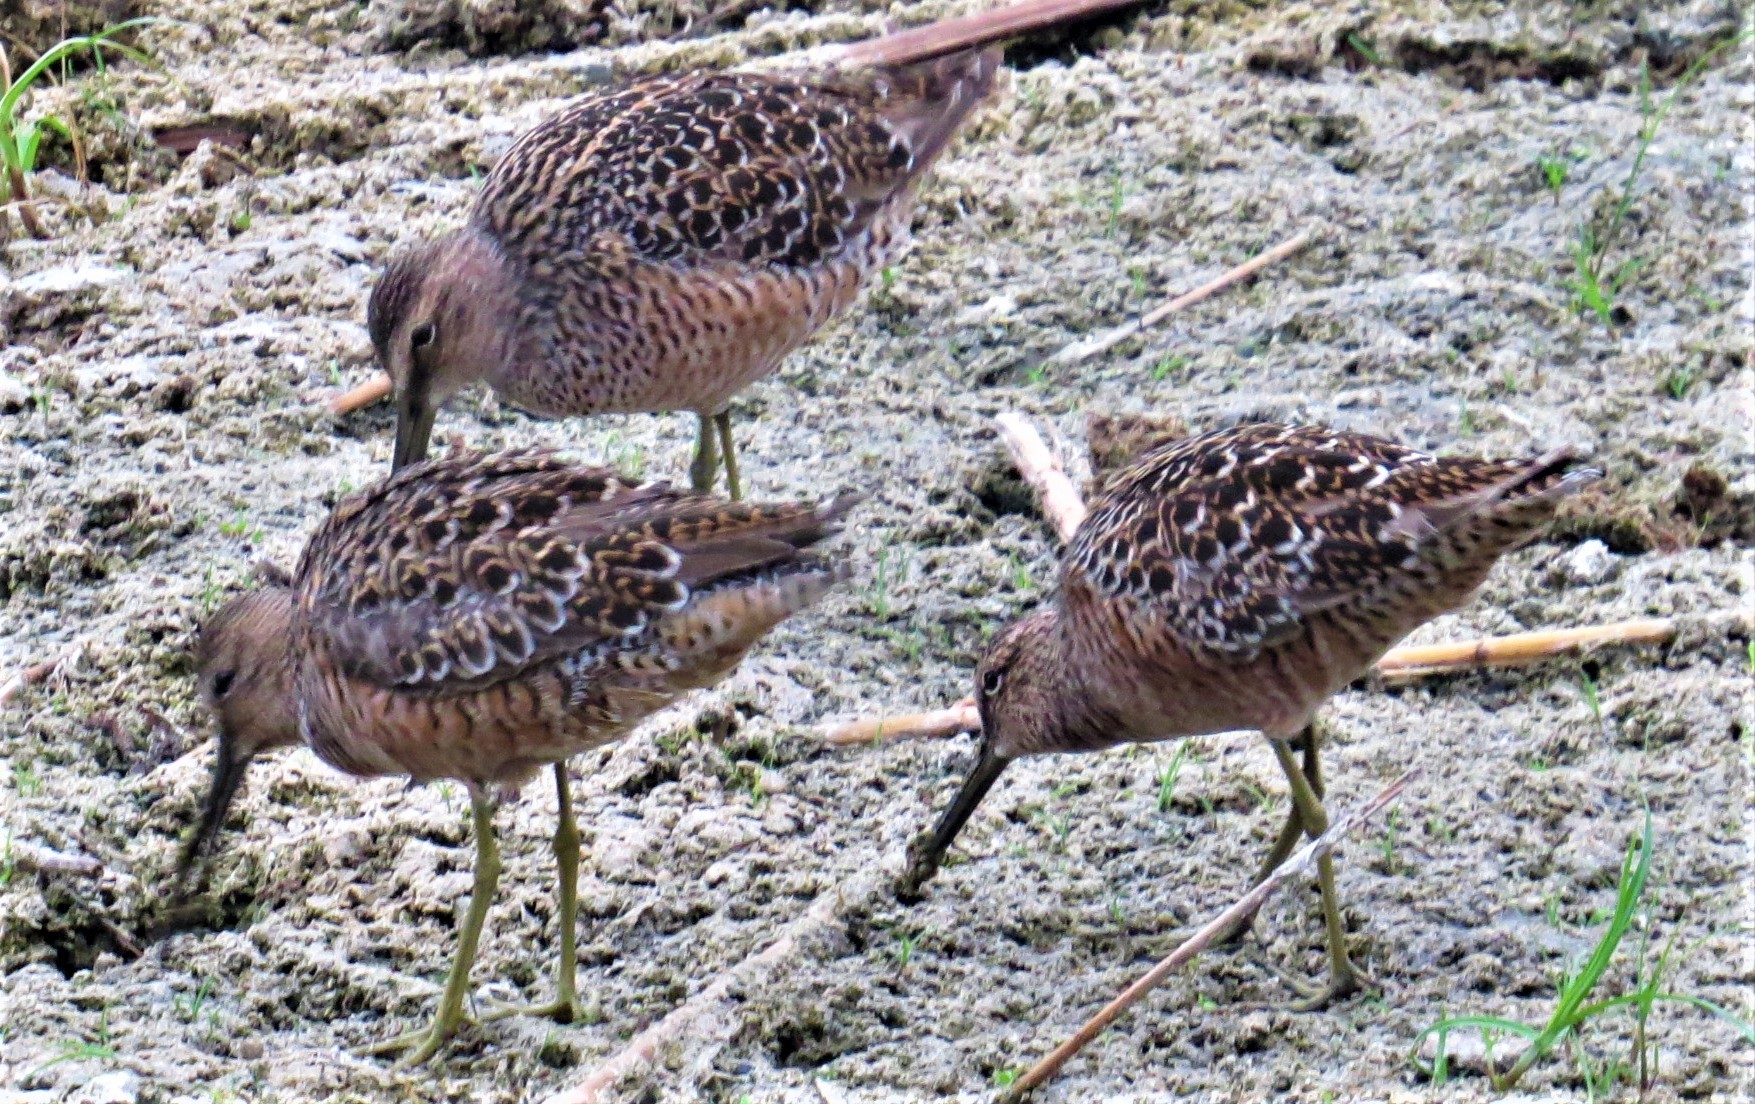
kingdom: Animalia
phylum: Chordata
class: Aves
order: Charadriiformes
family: Scolopacidae
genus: Limnodromus
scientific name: Limnodromus scolopaceus
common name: Long-billed dowitcher
